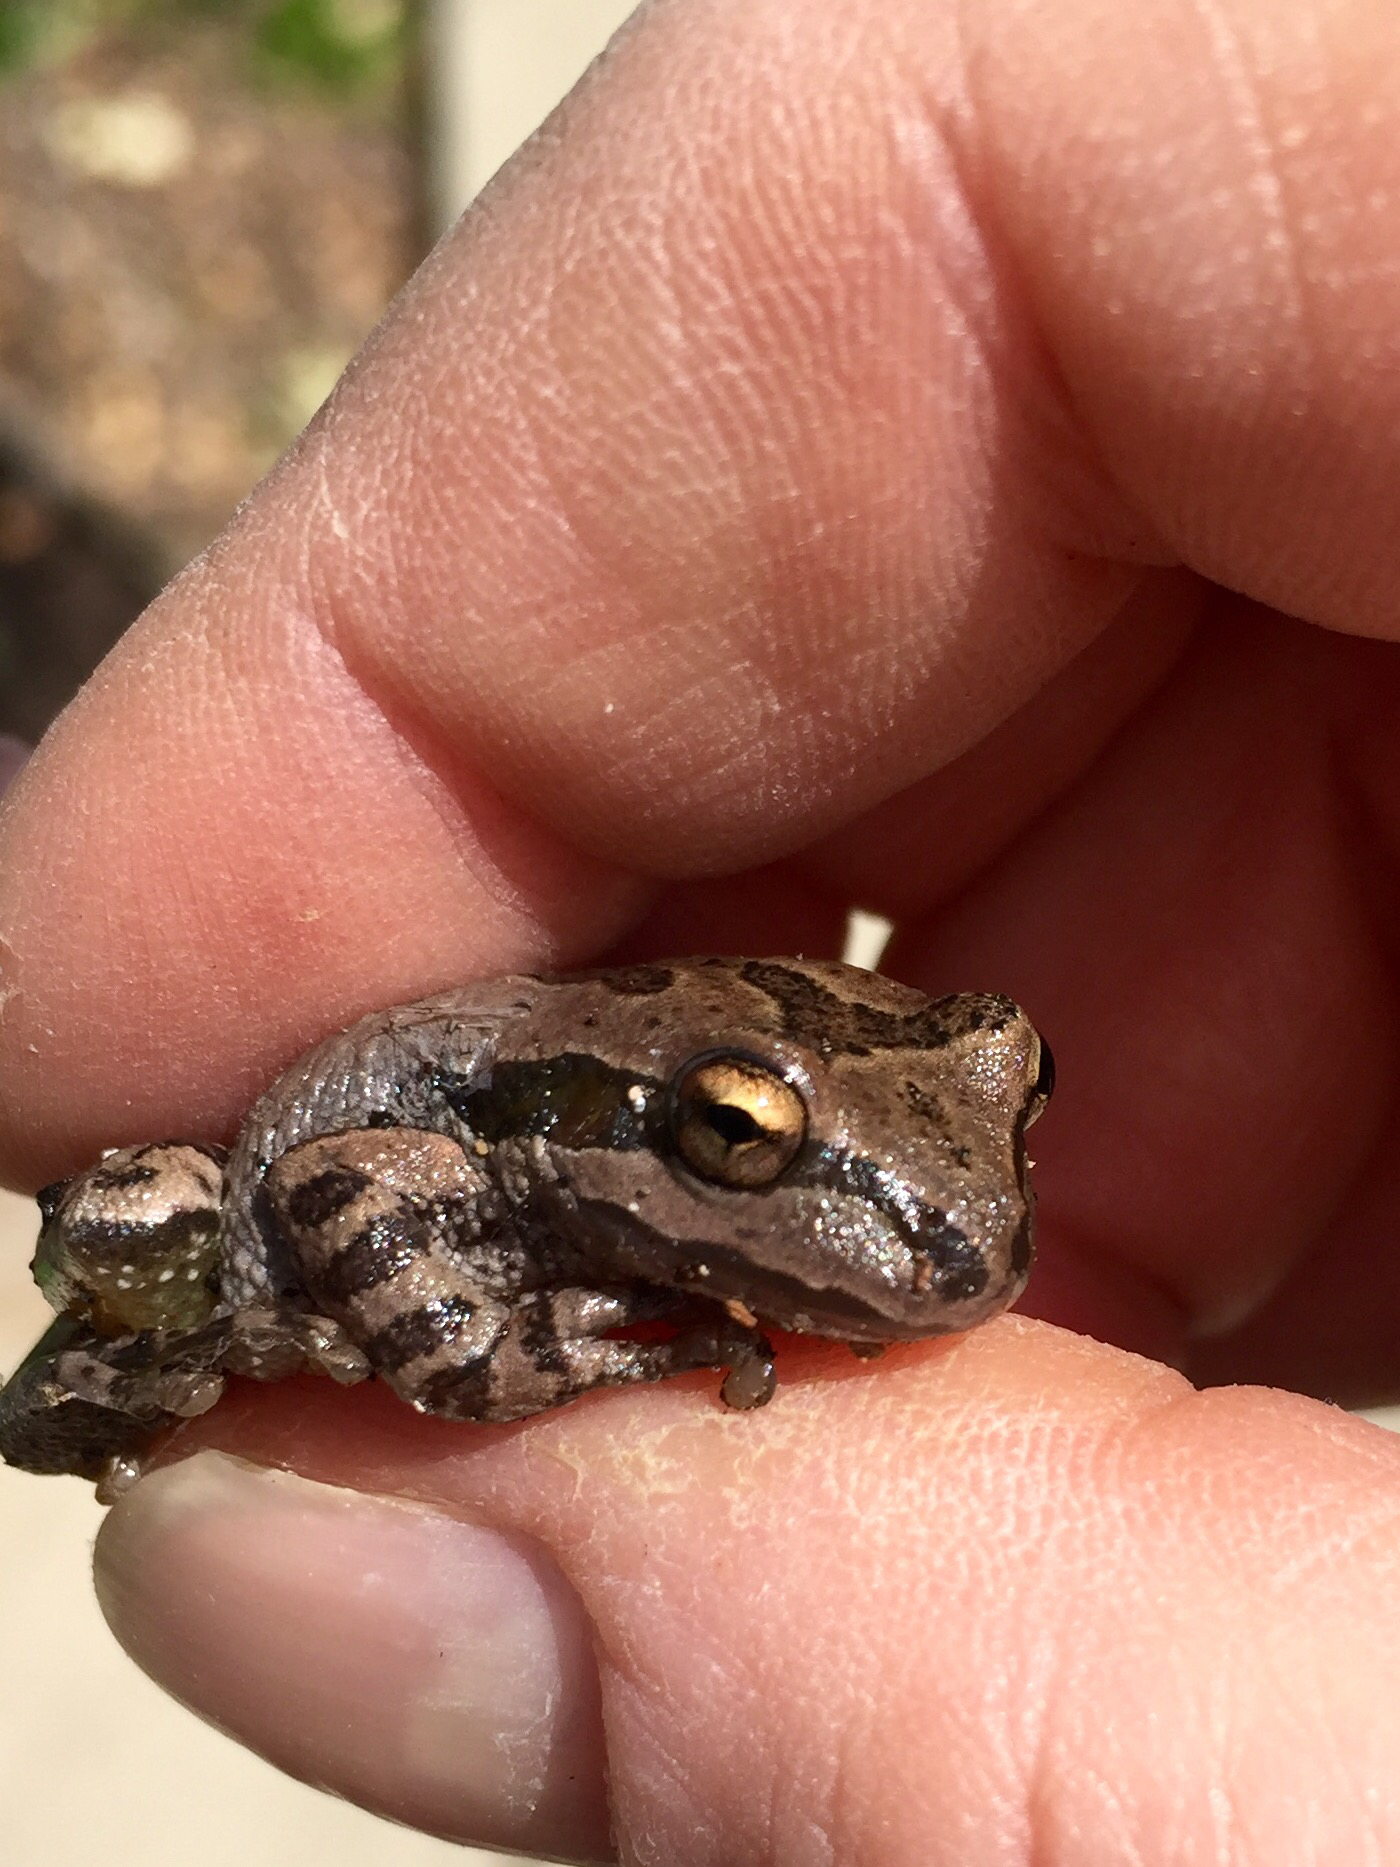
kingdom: Animalia
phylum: Chordata
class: Amphibia
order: Anura
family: Hylidae
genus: Pseudacris
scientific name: Pseudacris regilla
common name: Pacific chorus frog
